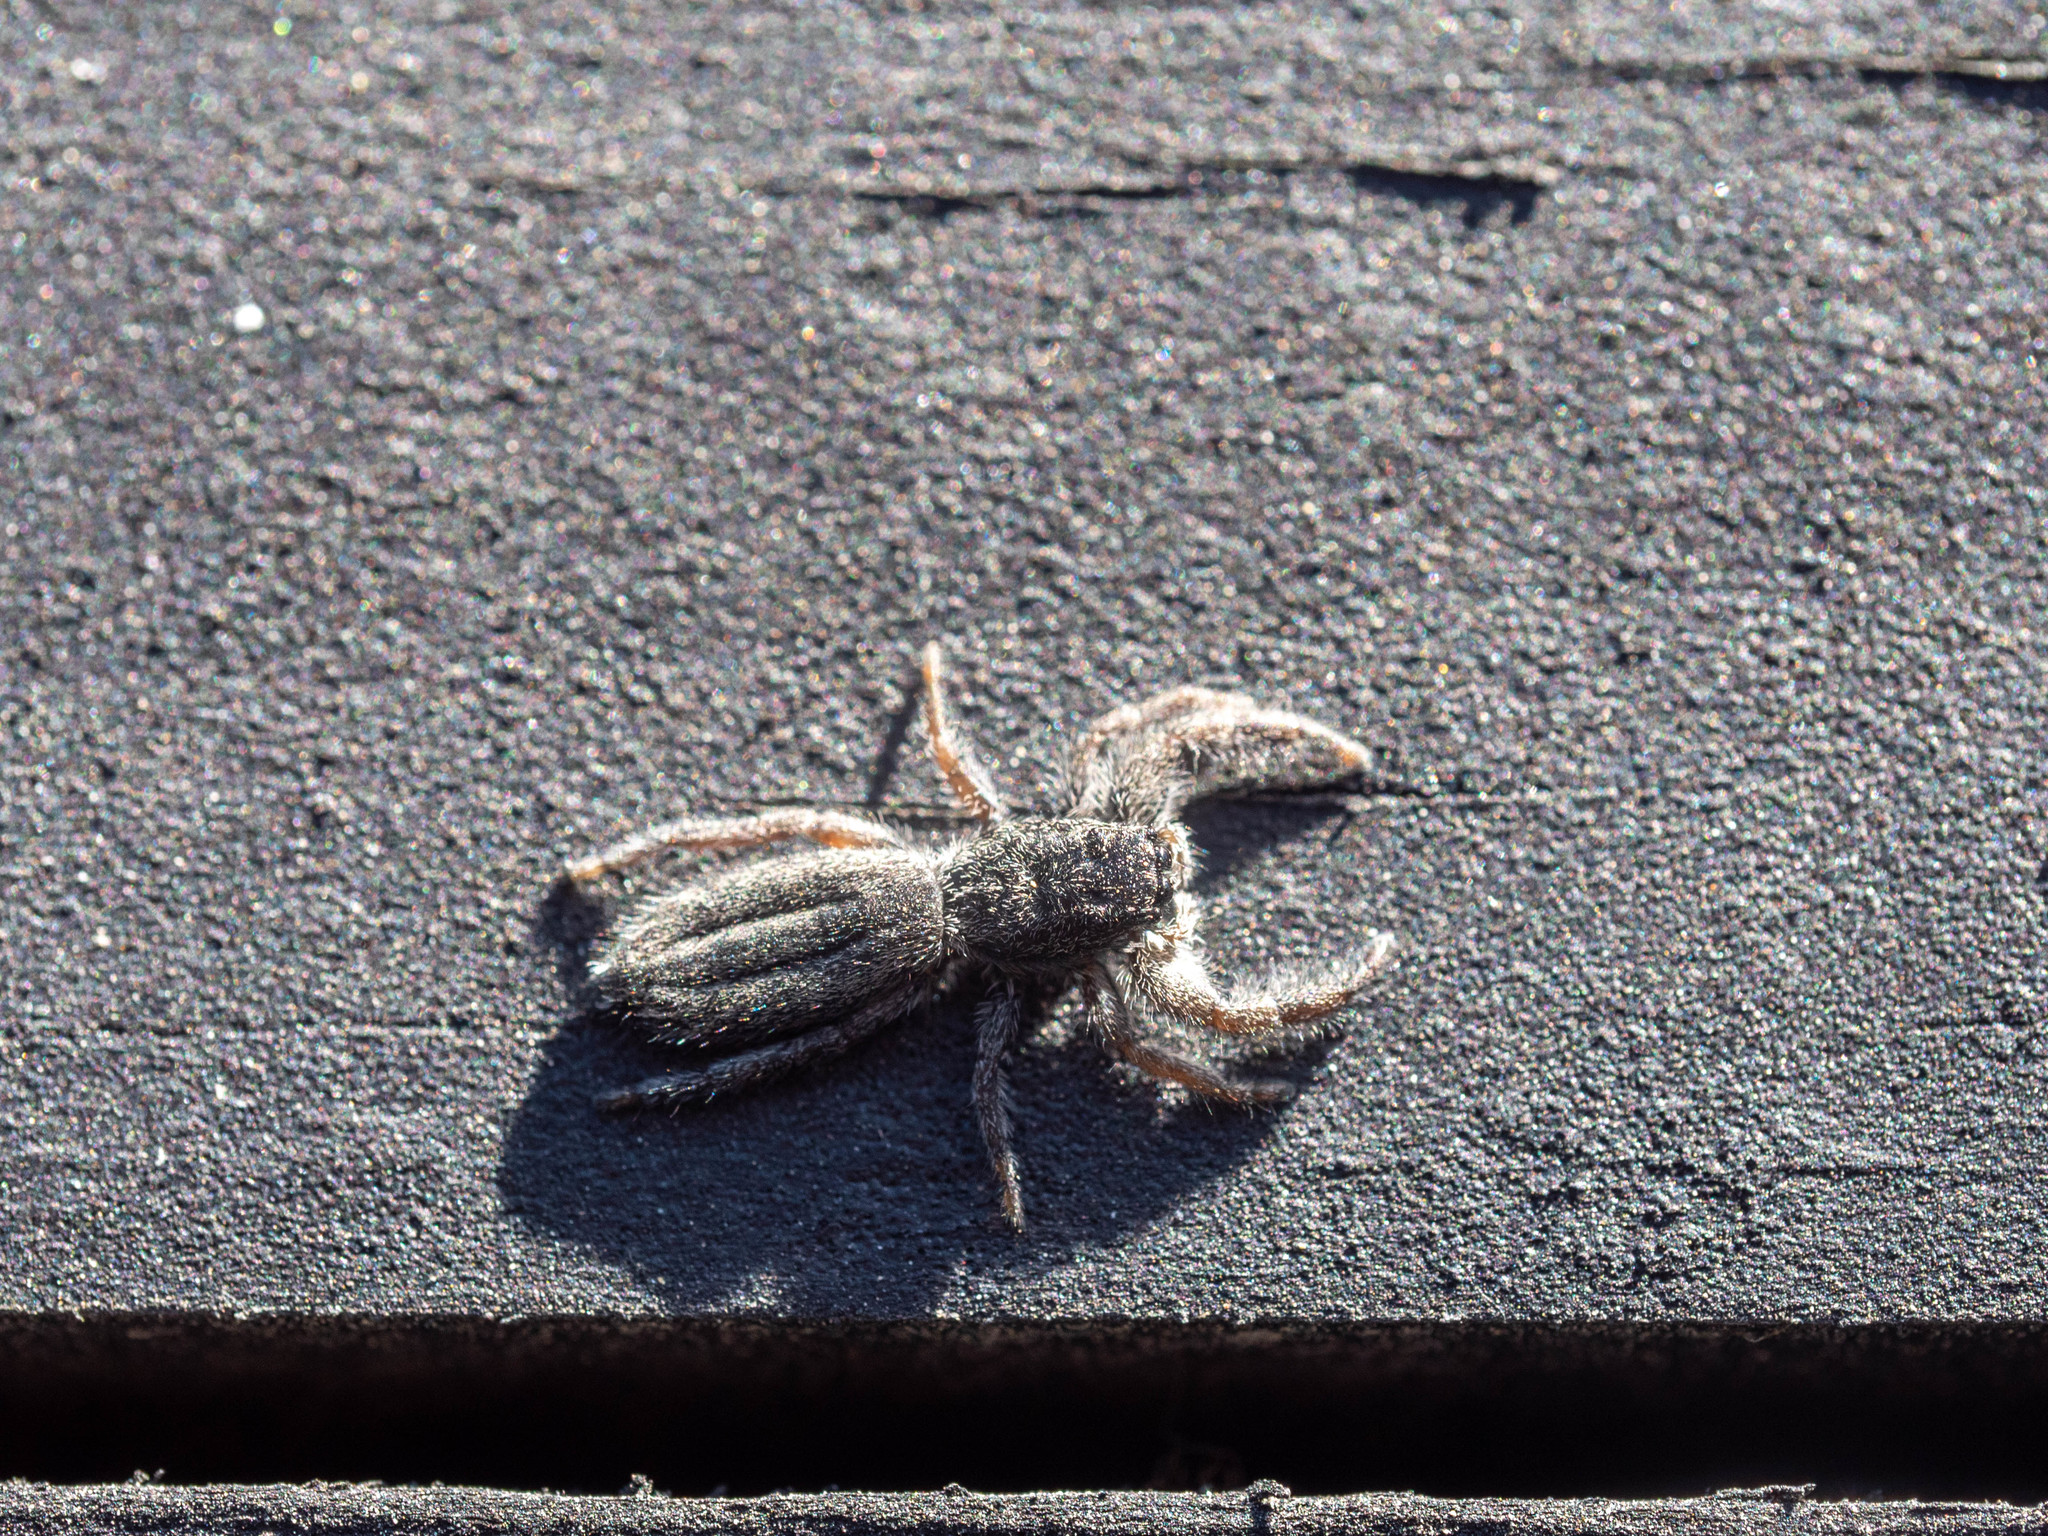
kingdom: Animalia
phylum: Arthropoda
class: Arachnida
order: Araneae
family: Salticidae
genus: Holoplatys
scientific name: Holoplatys apressus
